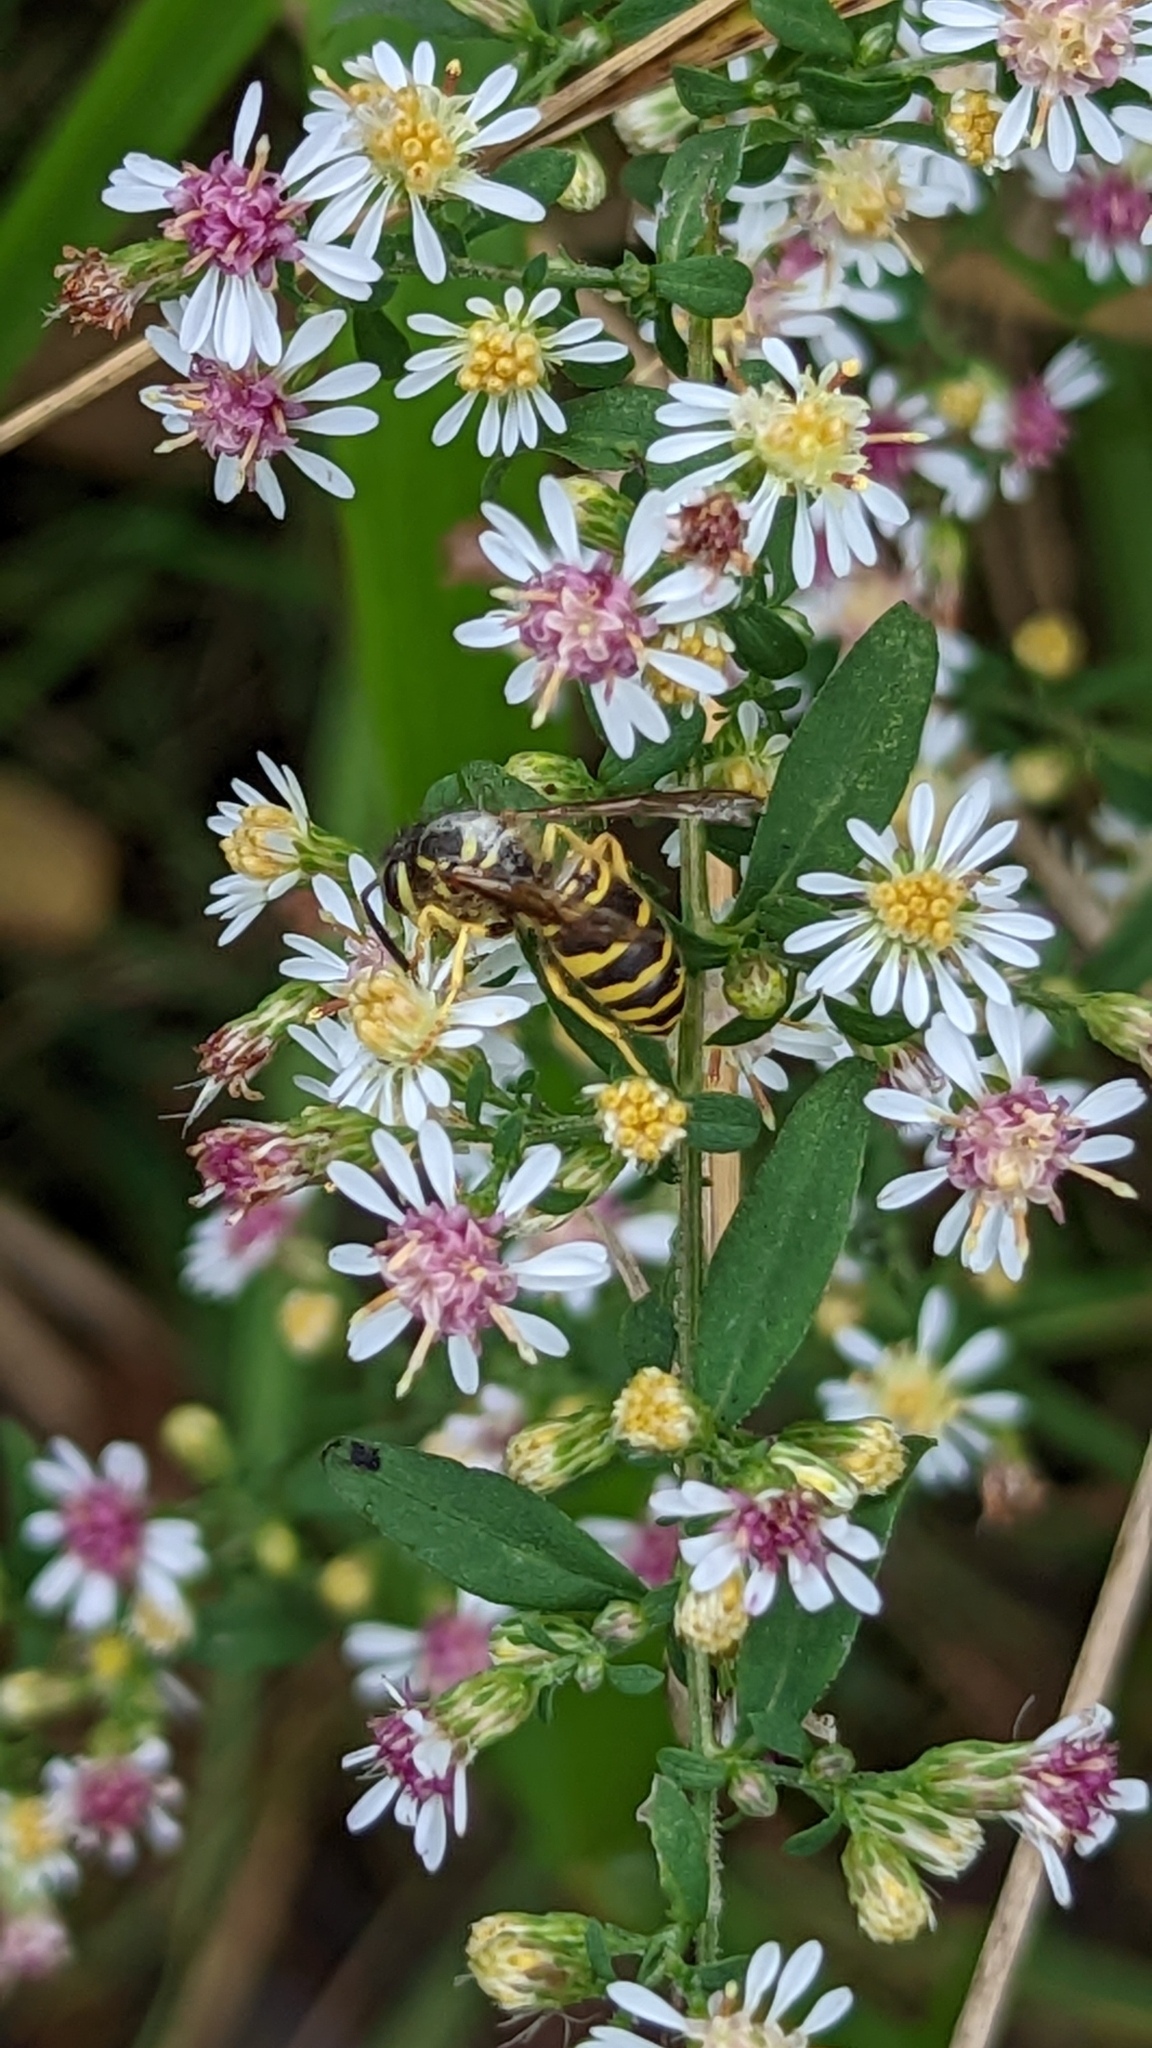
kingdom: Animalia
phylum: Arthropoda
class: Insecta
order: Hymenoptera
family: Vespidae
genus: Vespula
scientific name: Vespula maculifrons
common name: Eastern yellowjacket
